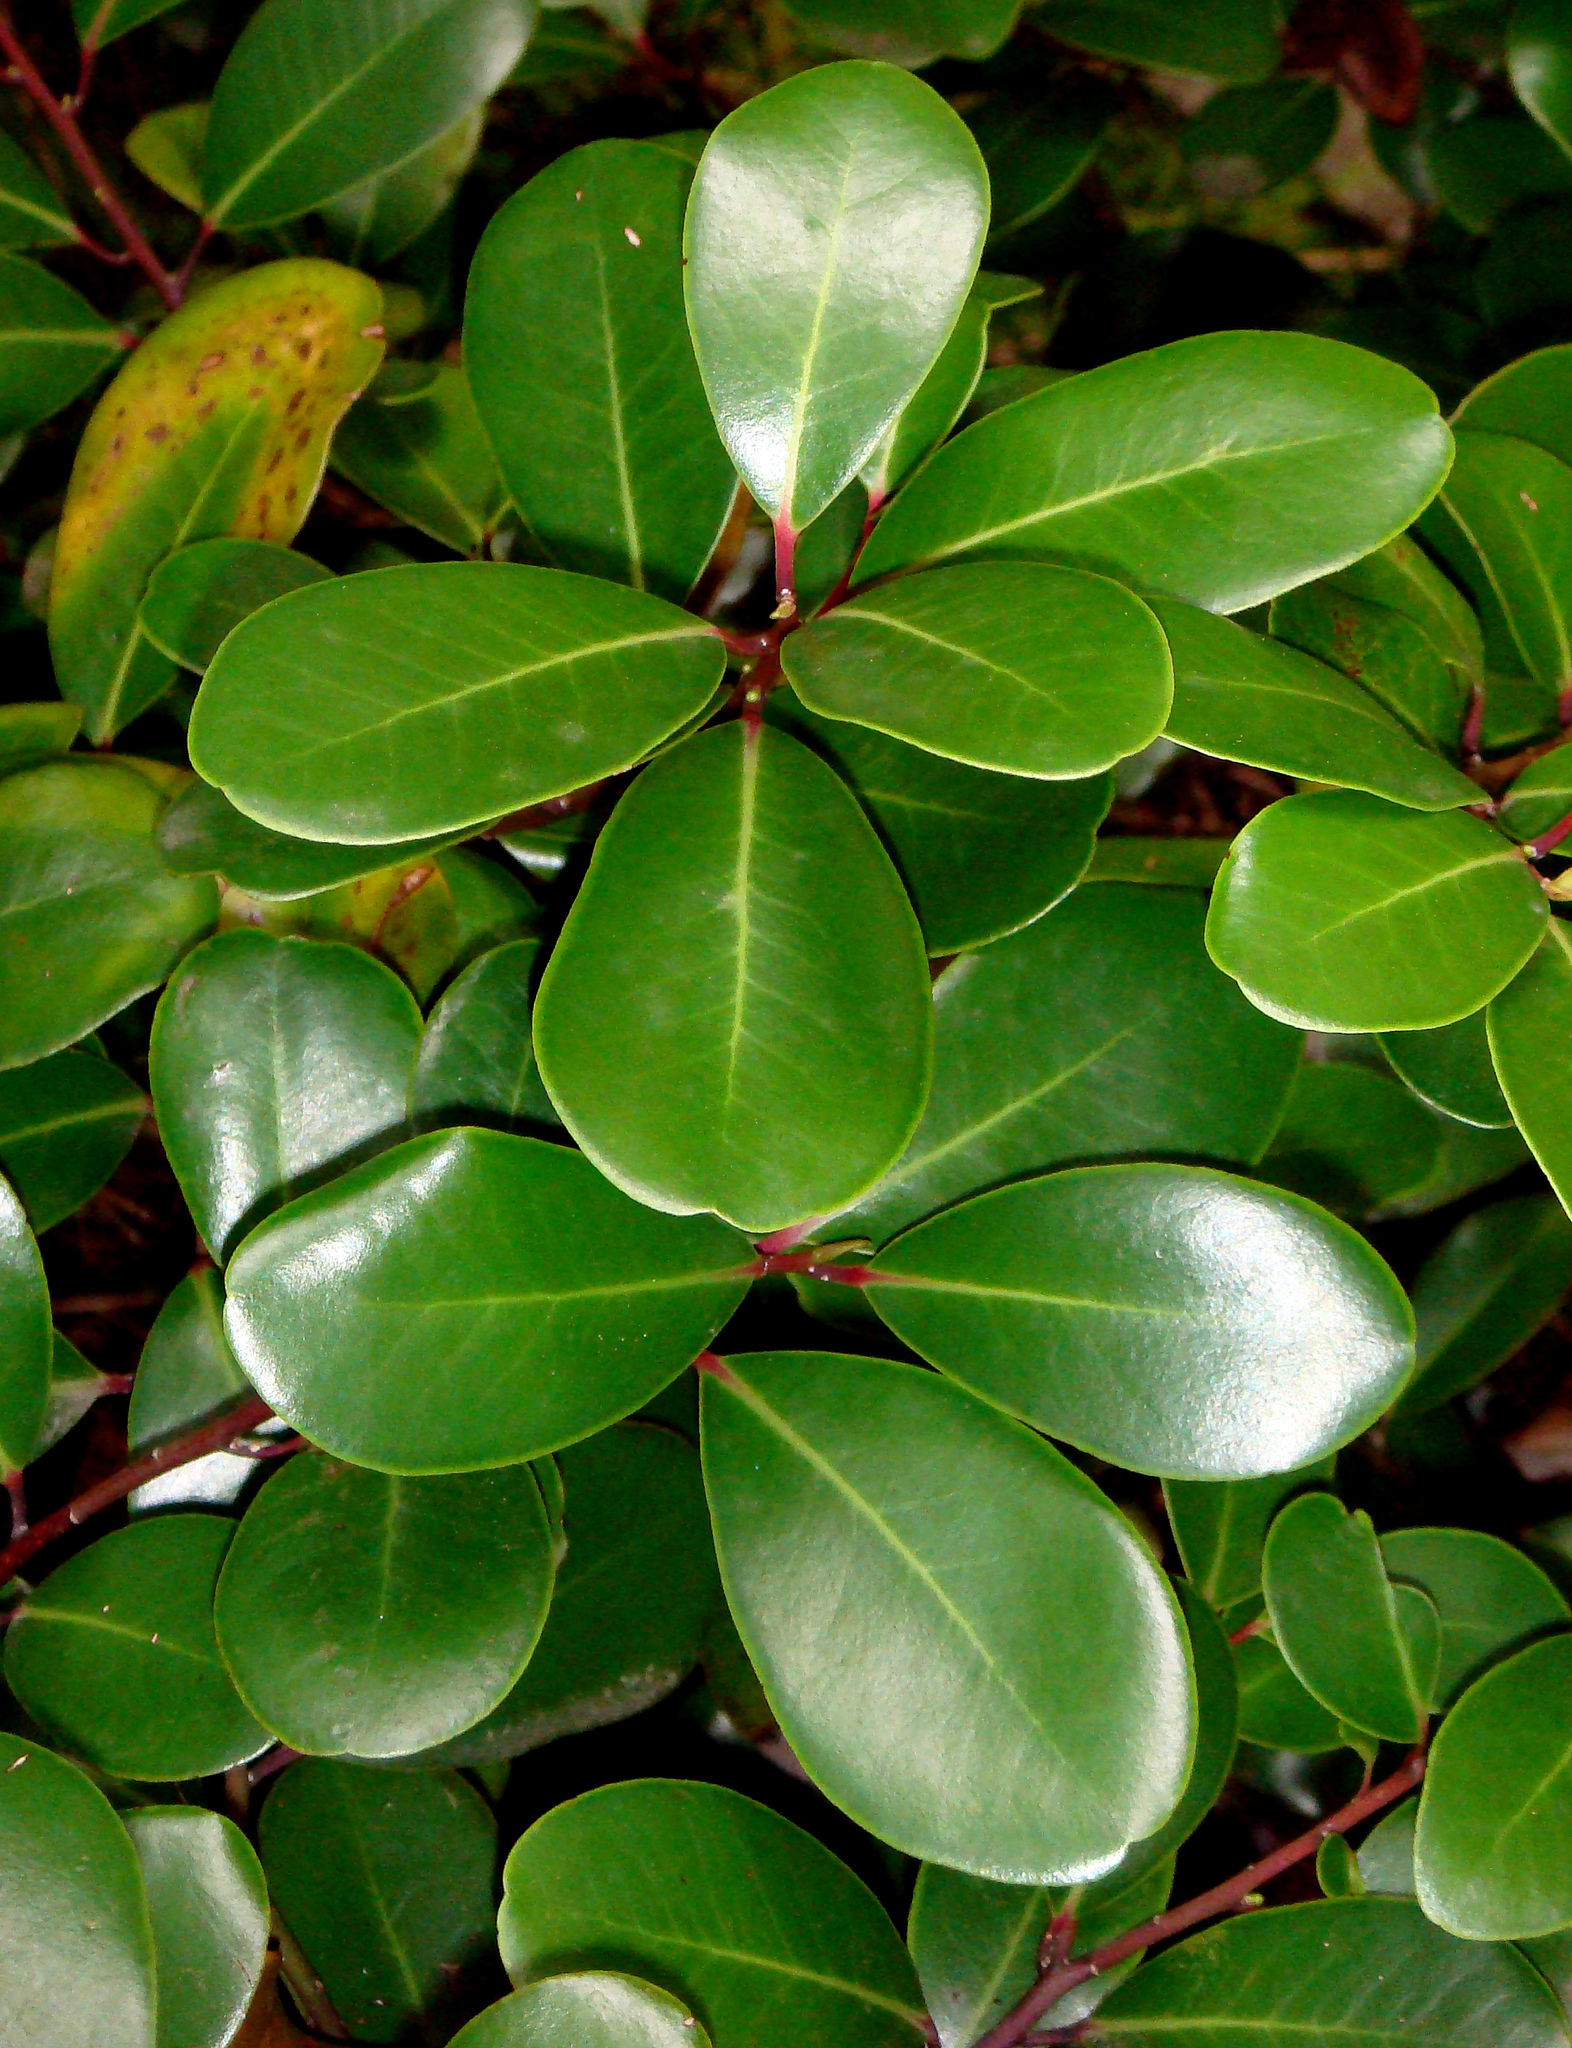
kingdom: Plantae
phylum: Tracheophyta
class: Magnoliopsida
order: Canellales
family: Winteraceae
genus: Pseudowintera
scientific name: Pseudowintera insperata
